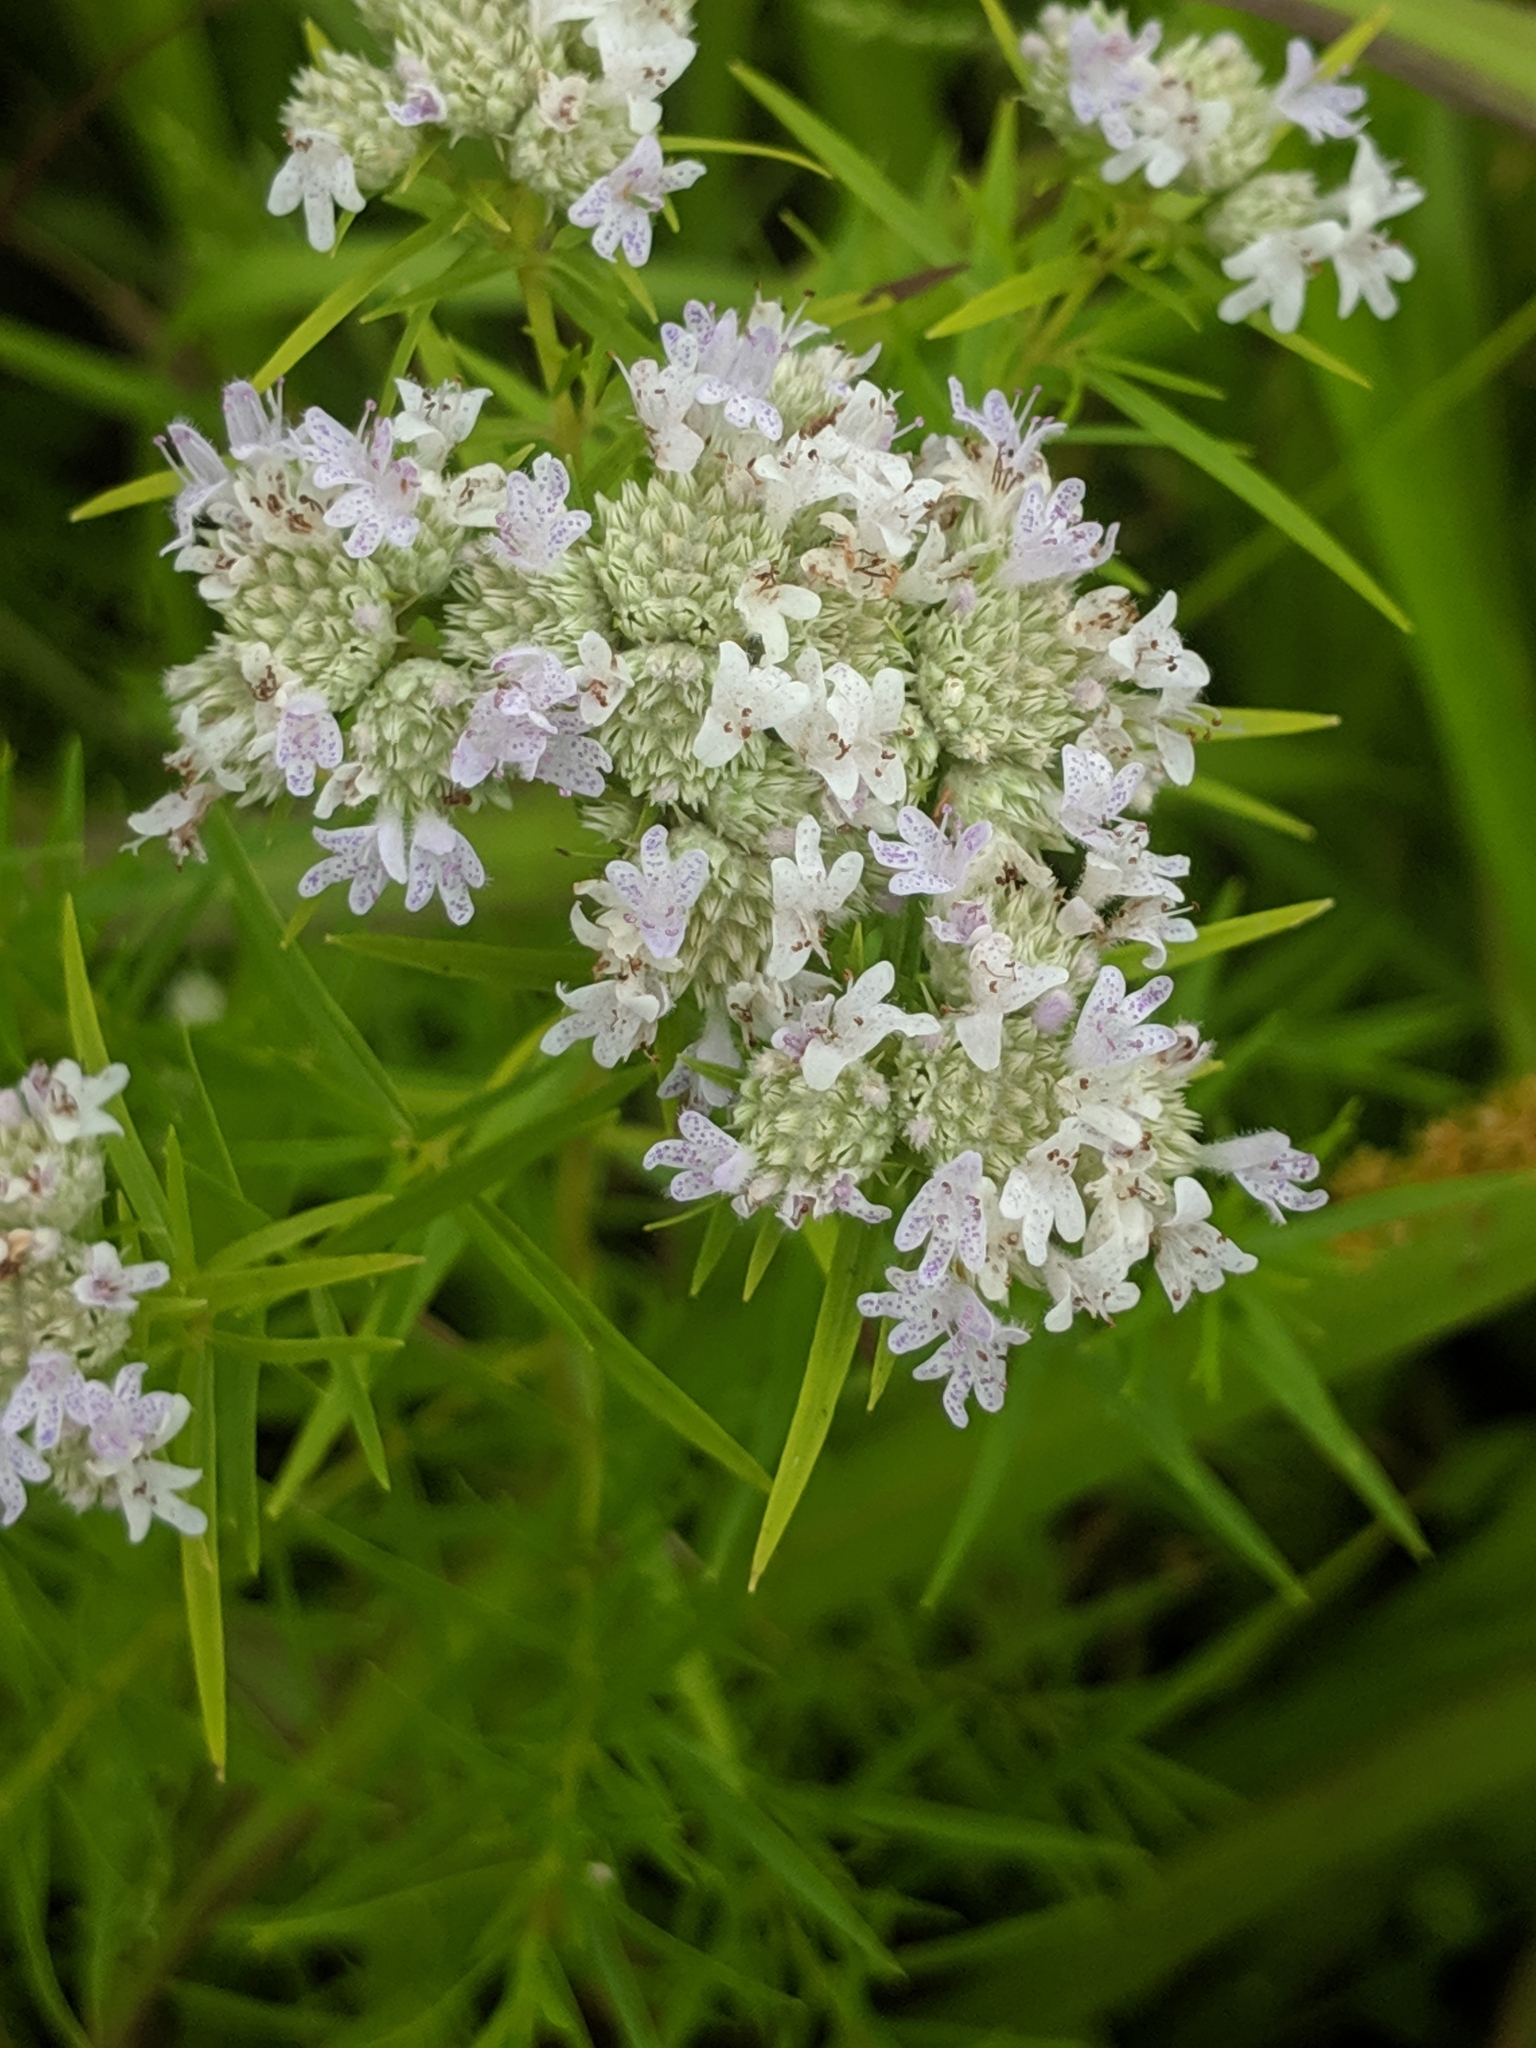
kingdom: Plantae
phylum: Tracheophyta
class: Magnoliopsida
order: Lamiales
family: Lamiaceae
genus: Pycnanthemum
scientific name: Pycnanthemum tenuifolium
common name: Narrow-leaf mountain-mint
